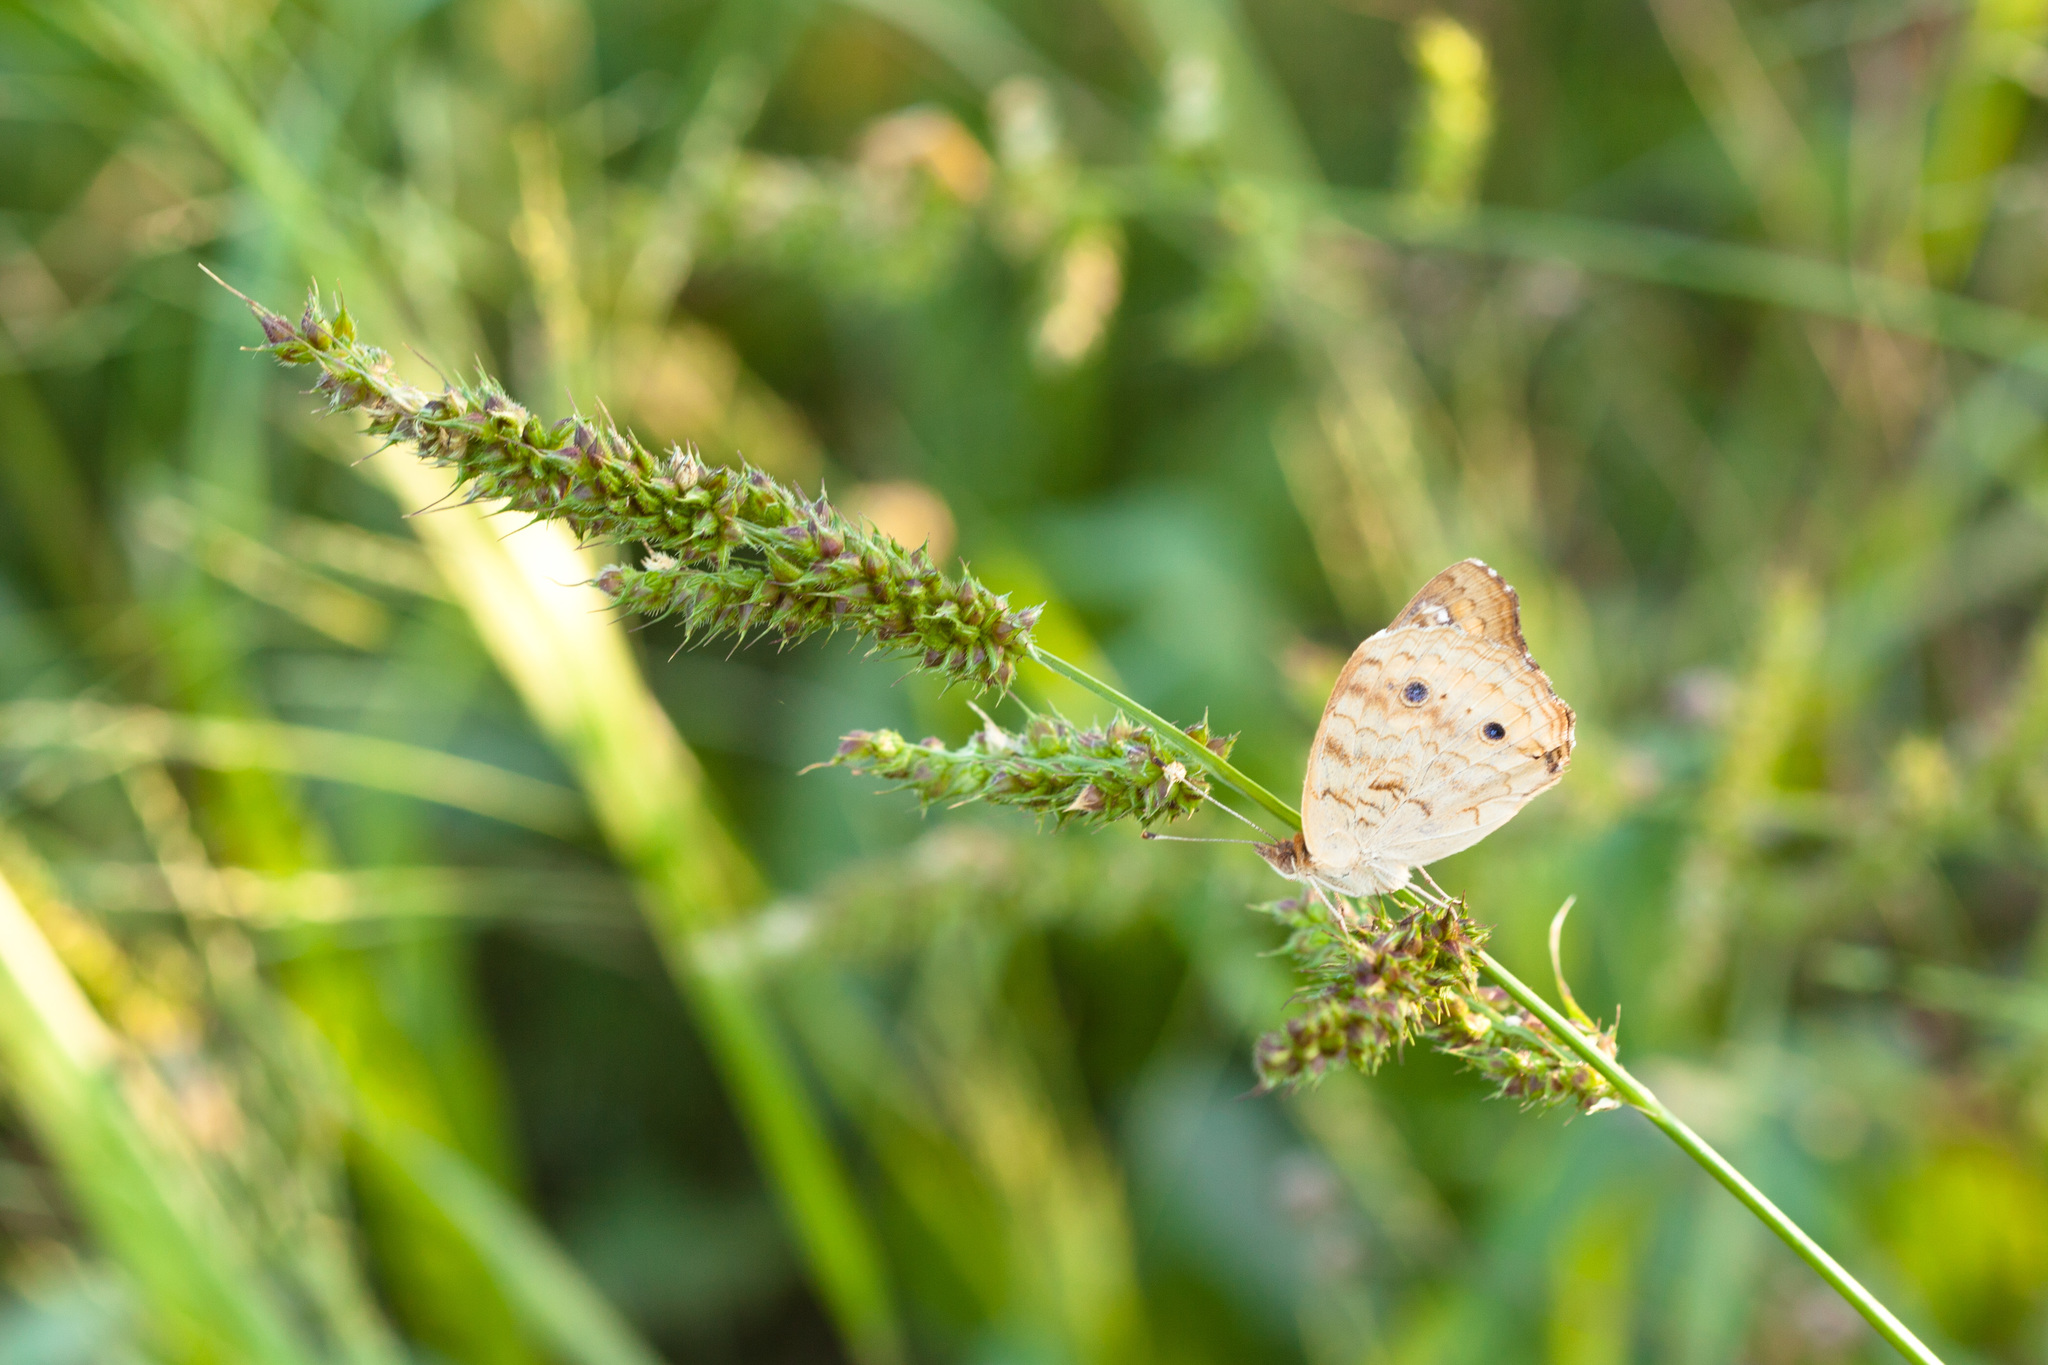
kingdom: Animalia
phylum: Arthropoda
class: Insecta
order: Lepidoptera
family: Nymphalidae
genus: Junonia
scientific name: Junonia coenia
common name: Common buckeye
